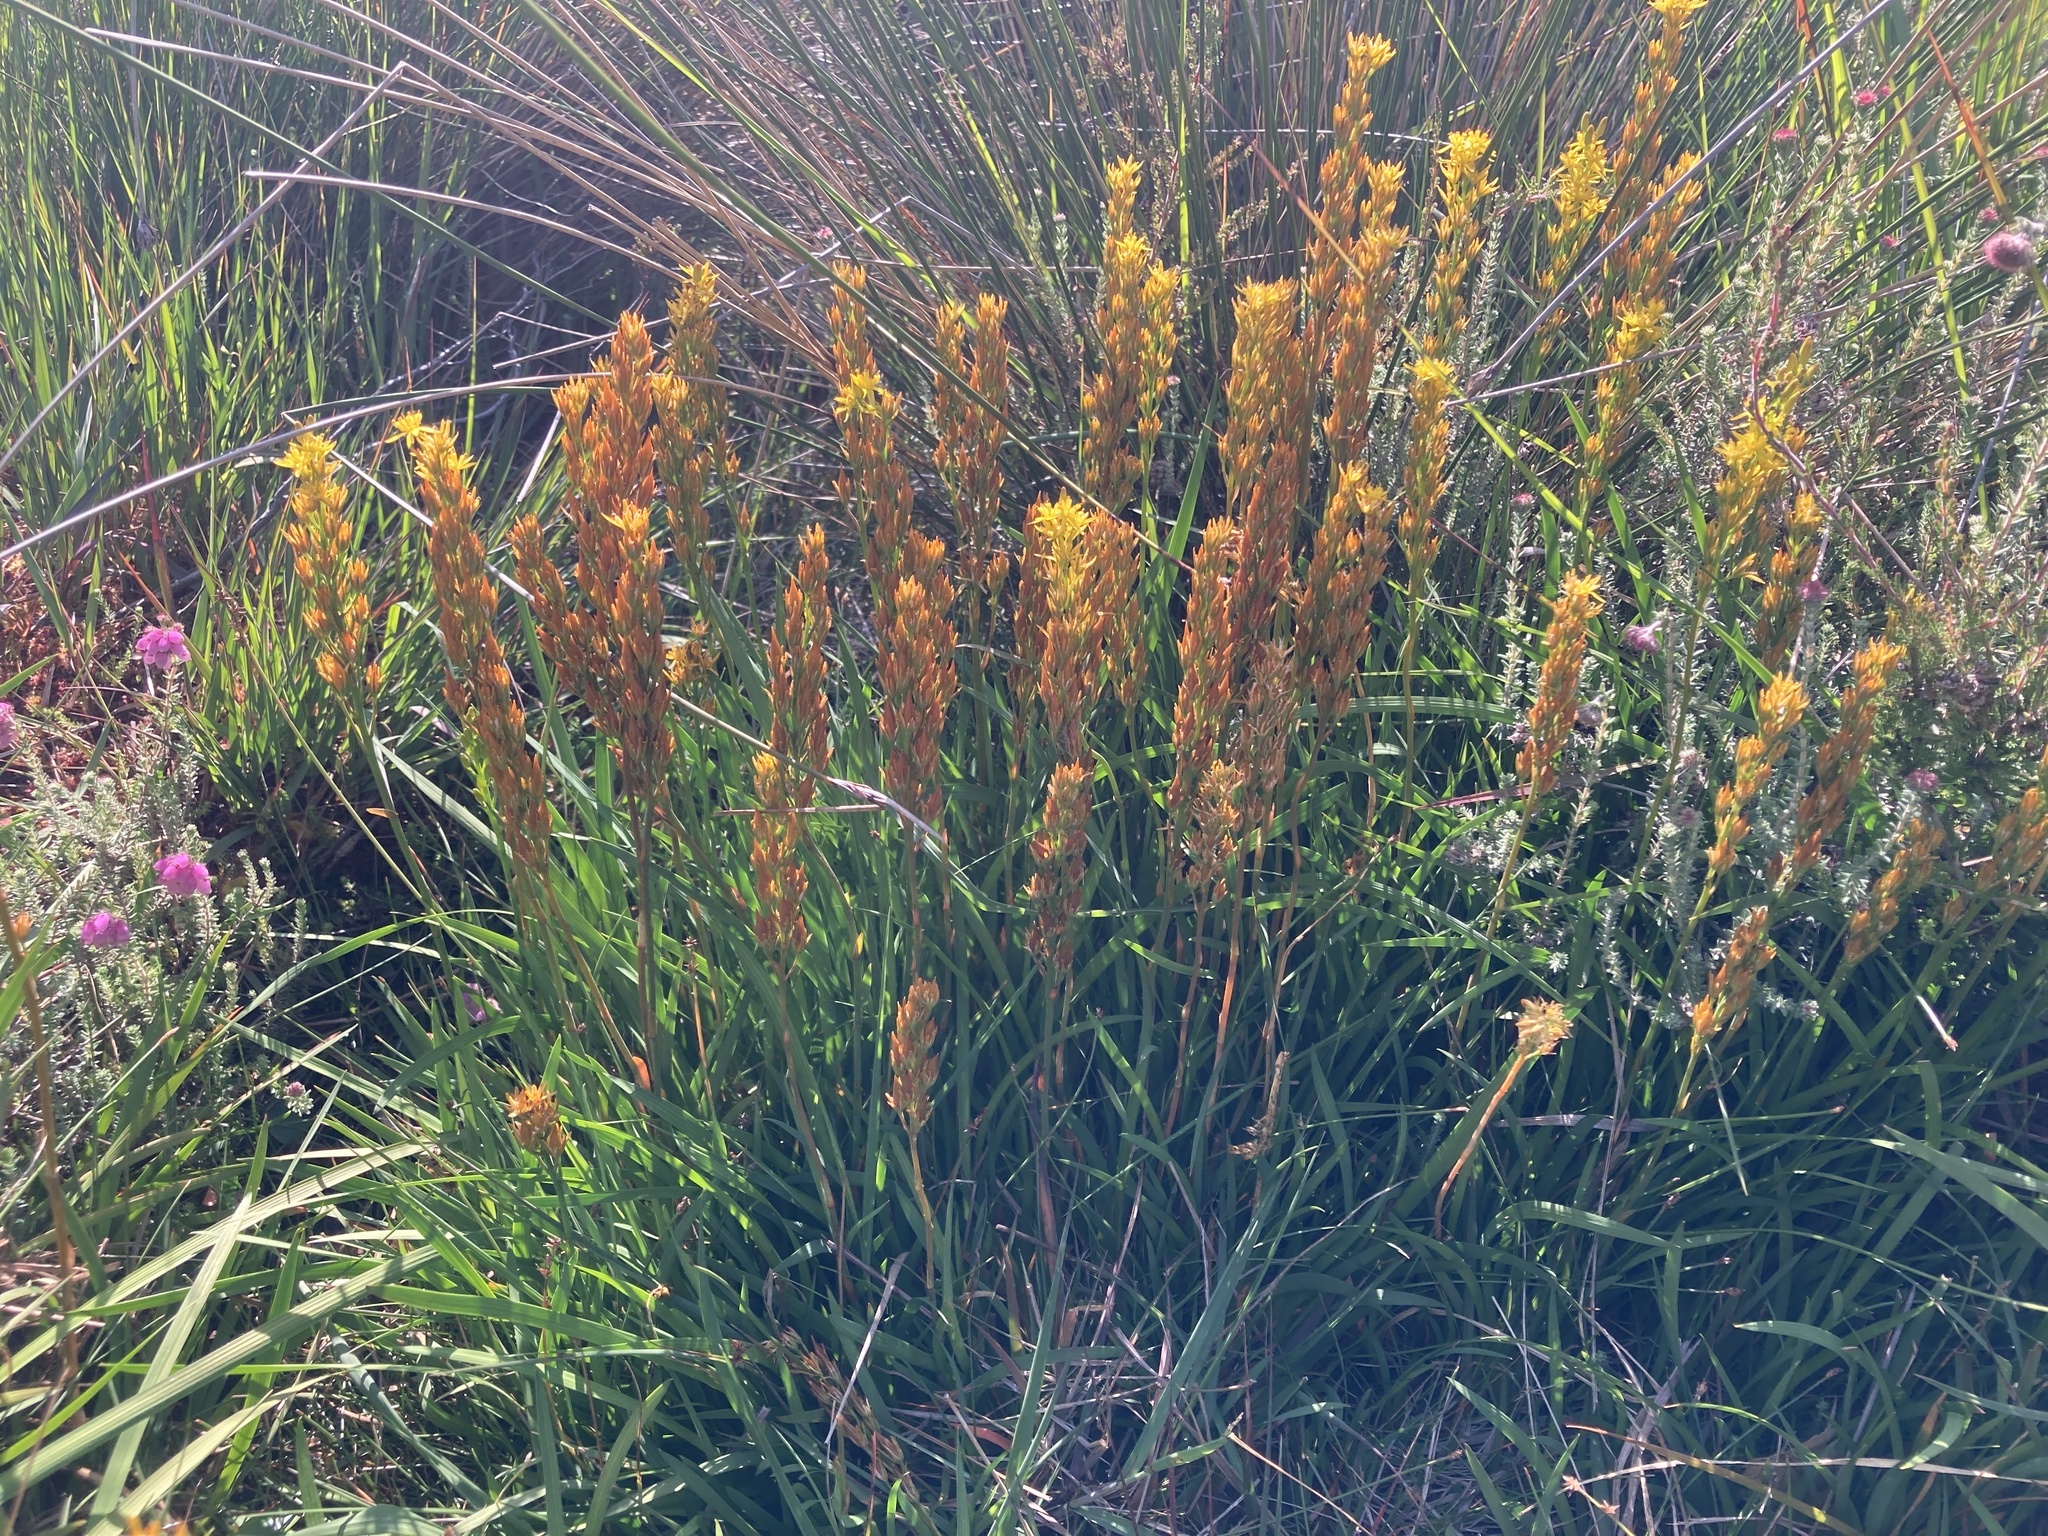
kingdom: Plantae
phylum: Tracheophyta
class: Liliopsida
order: Dioscoreales
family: Nartheciaceae
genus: Narthecium
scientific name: Narthecium ossifragum
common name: Bog asphodel
